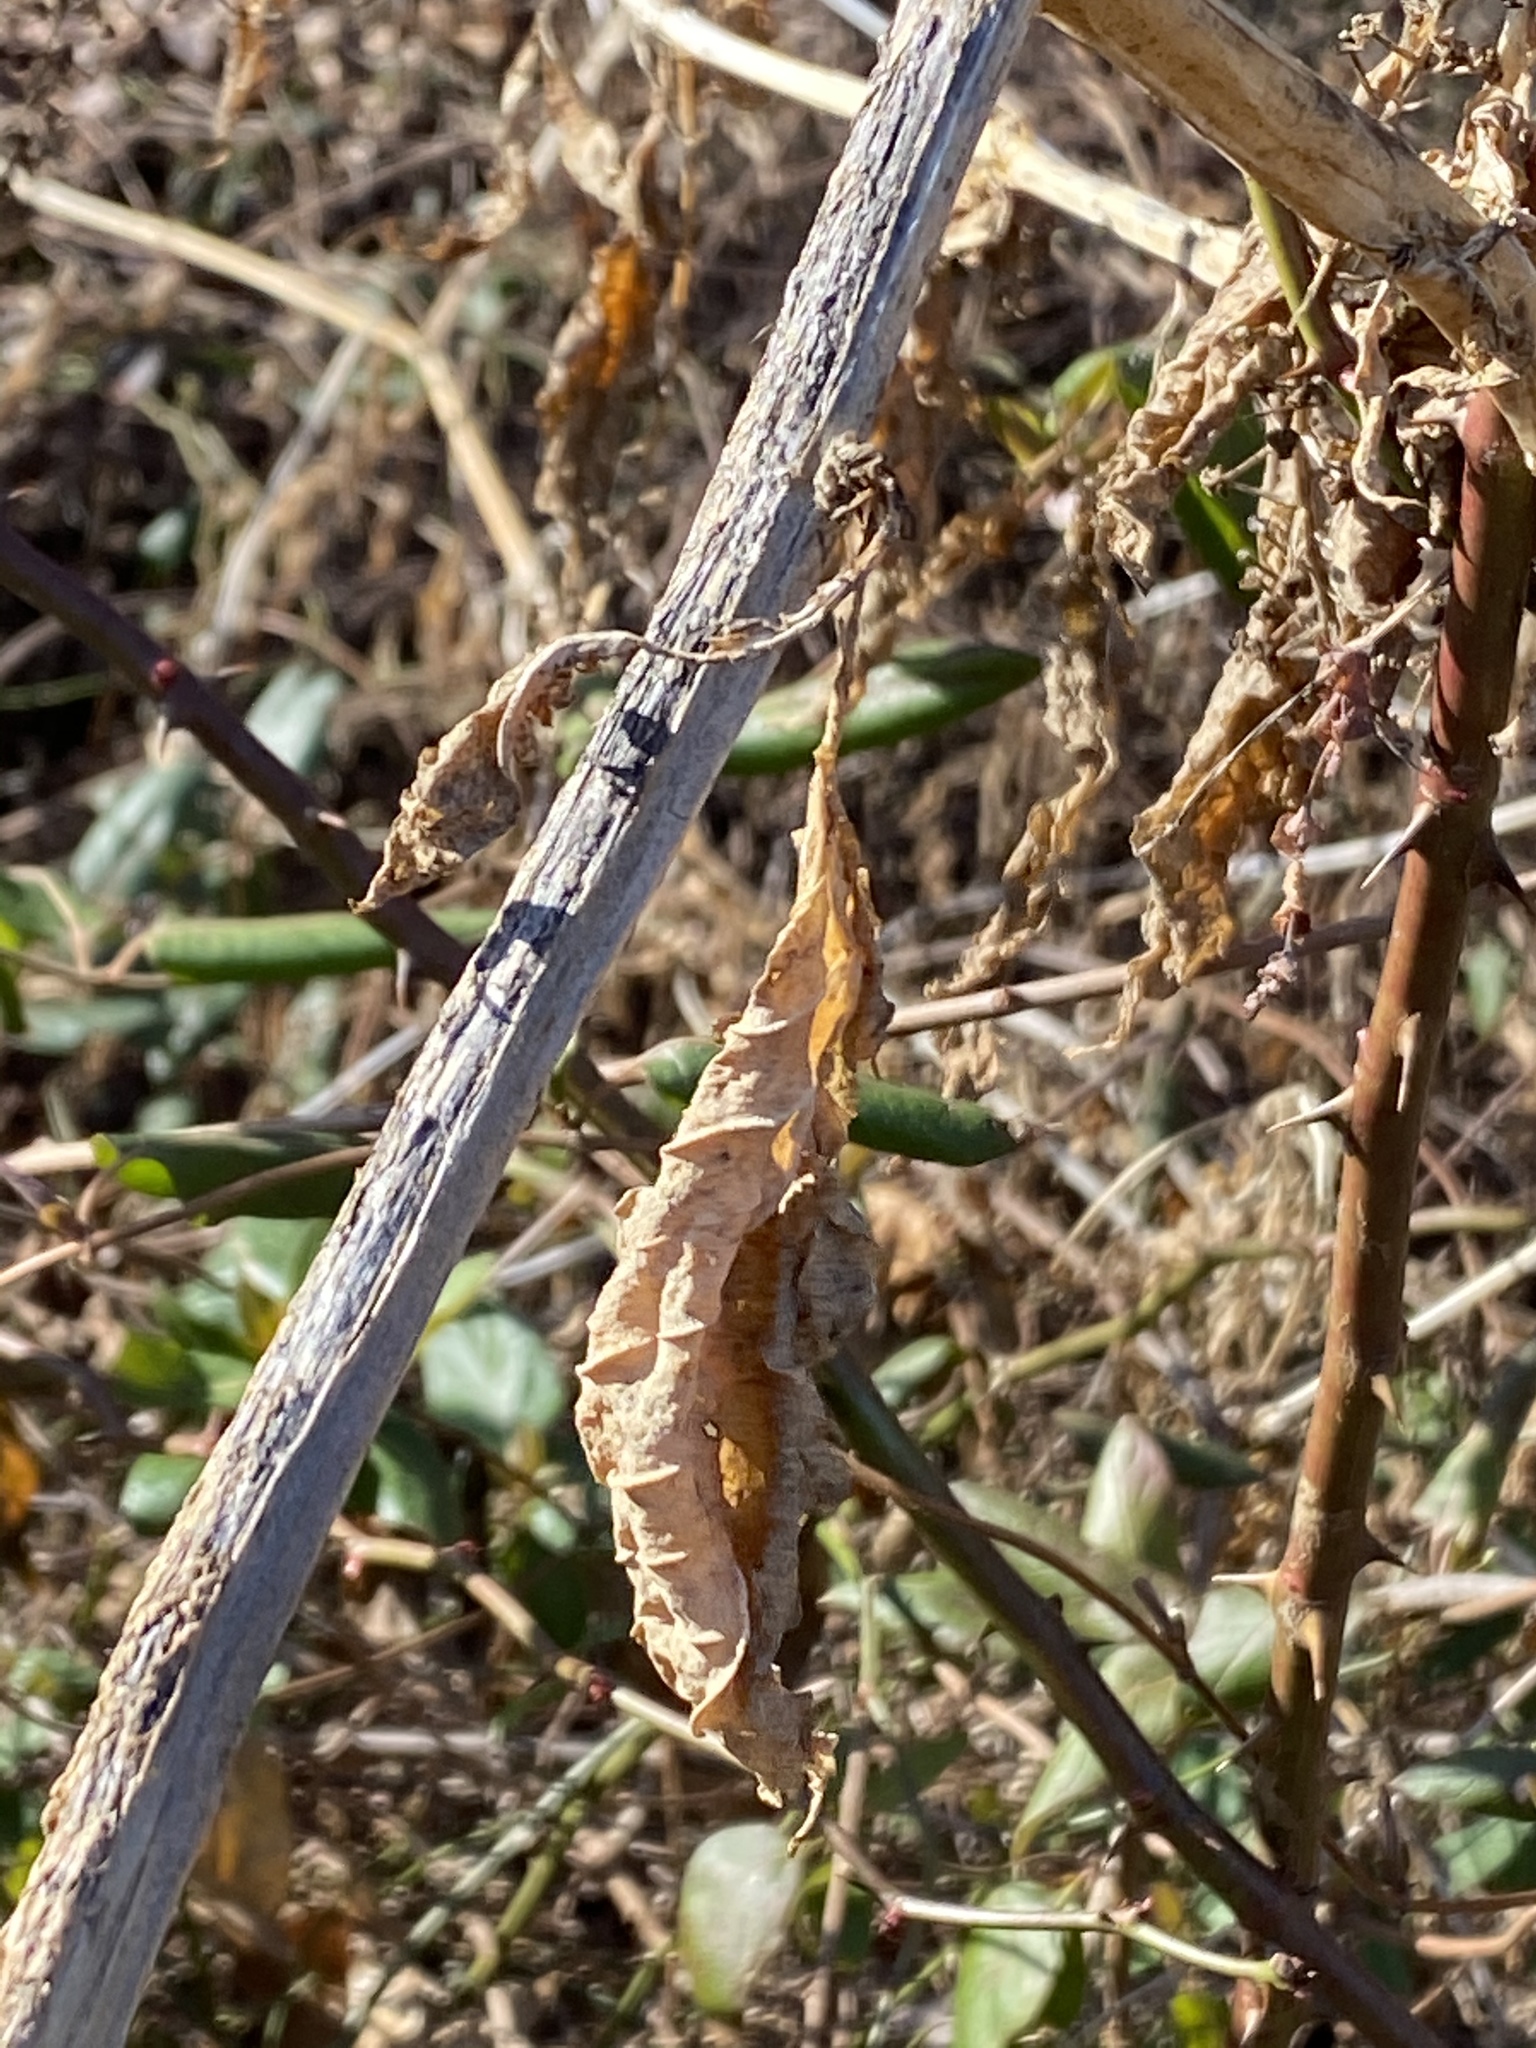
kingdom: Plantae
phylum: Tracheophyta
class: Magnoliopsida
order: Caryophyllales
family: Phytolaccaceae
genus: Phytolacca
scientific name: Phytolacca americana
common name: American pokeweed
